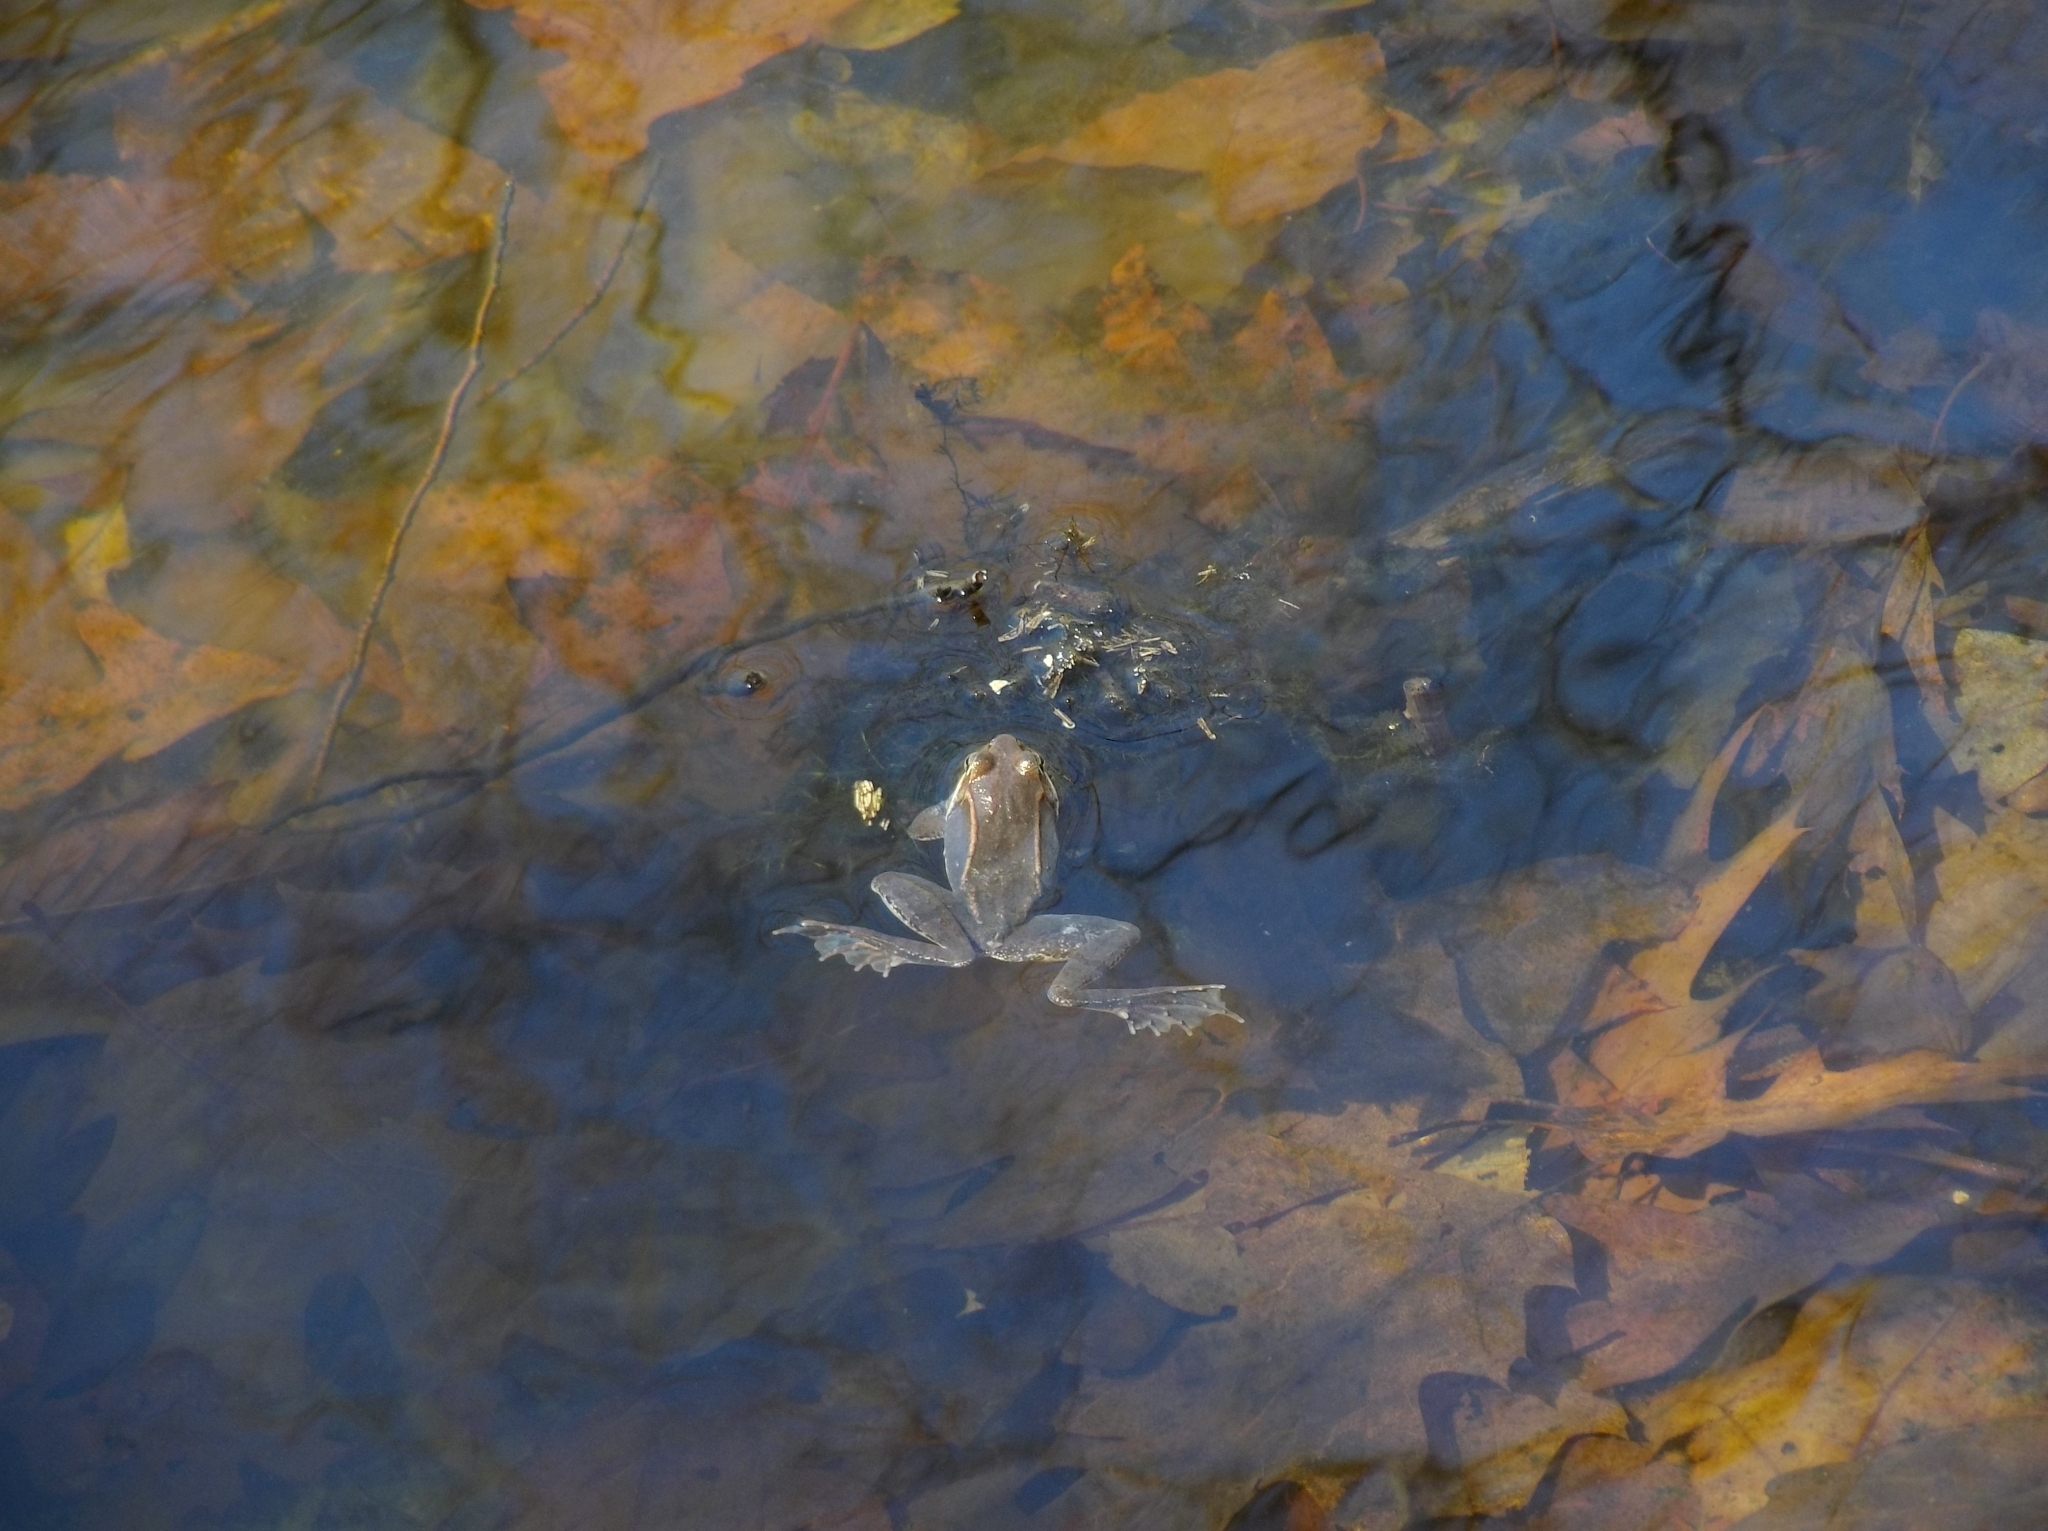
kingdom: Animalia
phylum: Chordata
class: Amphibia
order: Anura
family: Ranidae
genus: Lithobates
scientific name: Lithobates sylvaticus
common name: Wood frog
